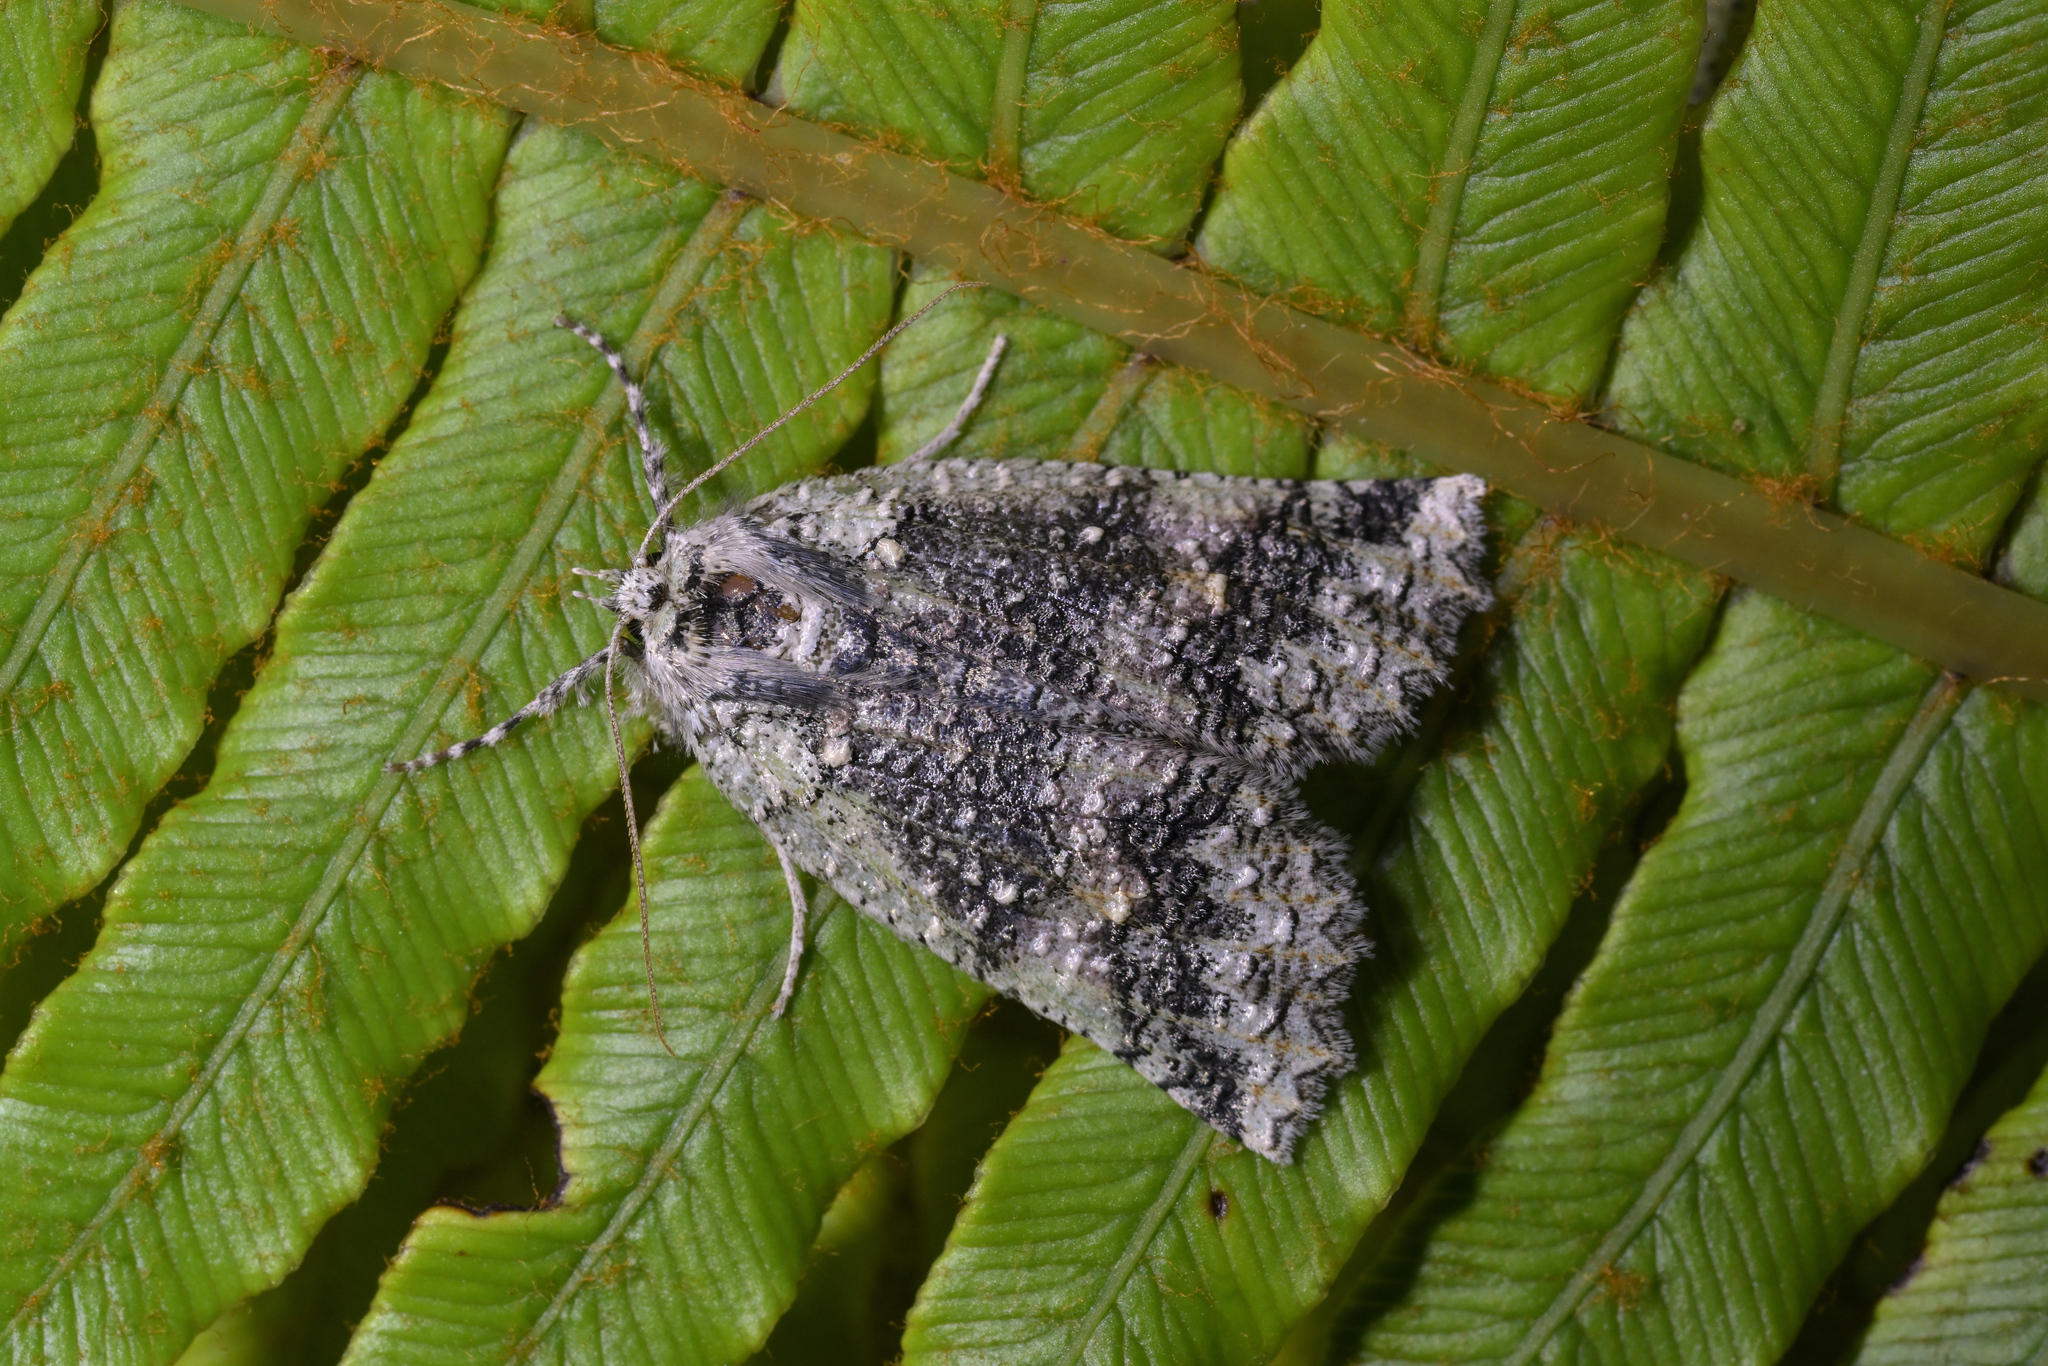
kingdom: Animalia
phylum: Arthropoda
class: Insecta
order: Lepidoptera
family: Geometridae
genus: Declana
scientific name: Declana floccosa
